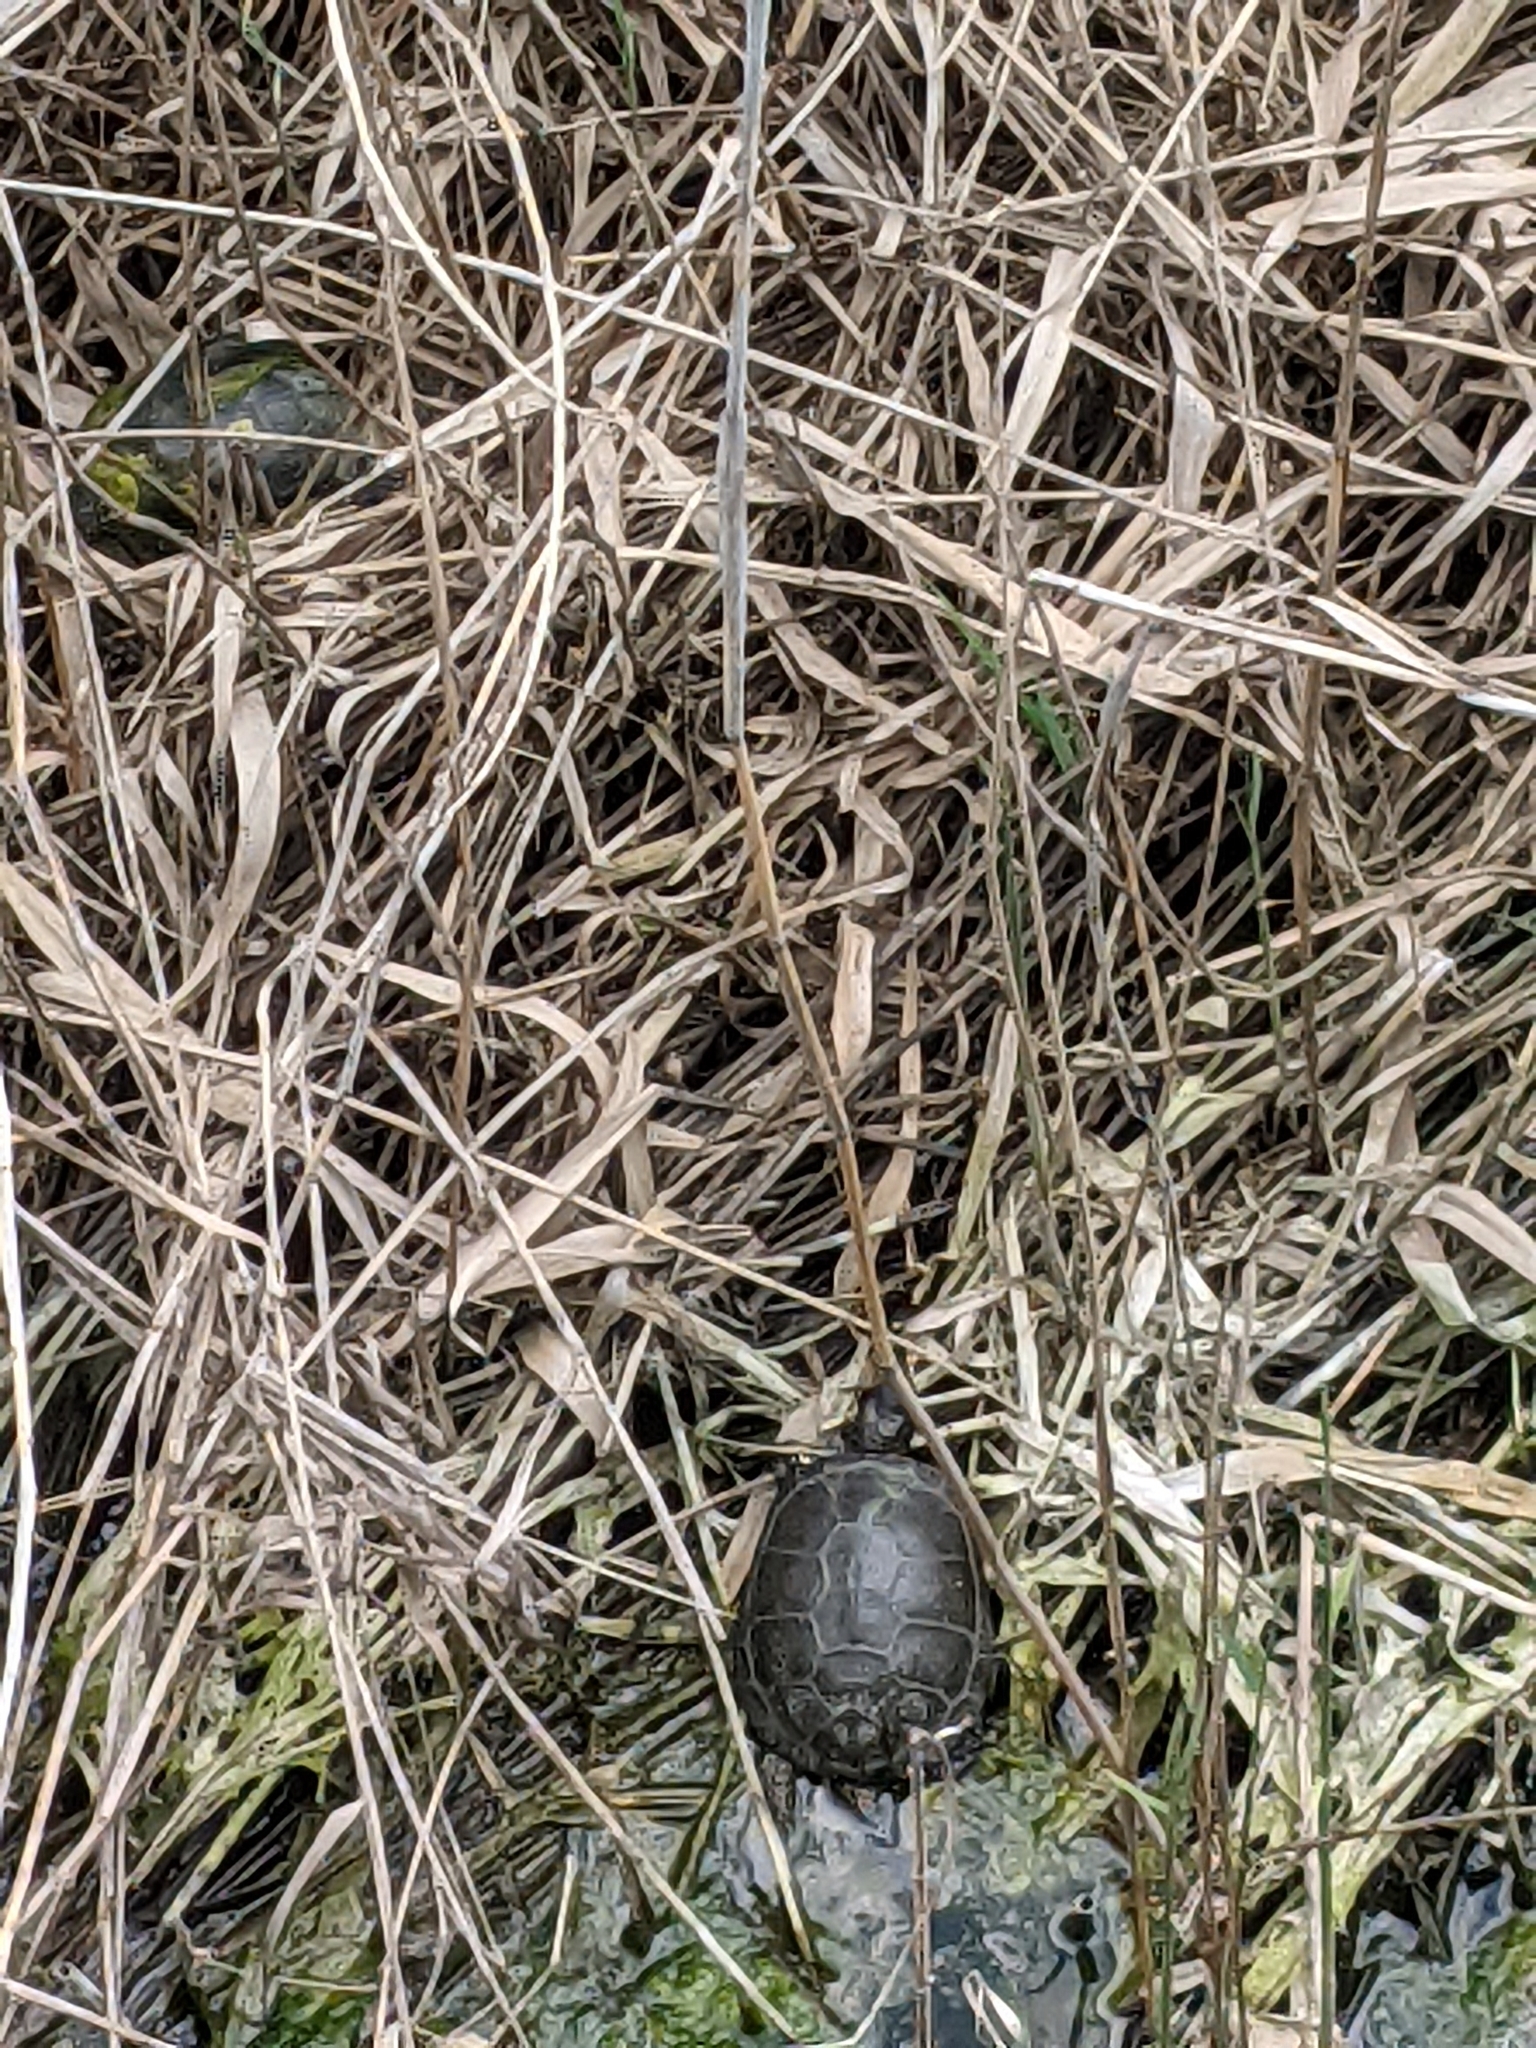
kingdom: Animalia
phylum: Chordata
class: Testudines
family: Emydidae
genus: Emys
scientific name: Emys orbicularis
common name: European pond turtle
